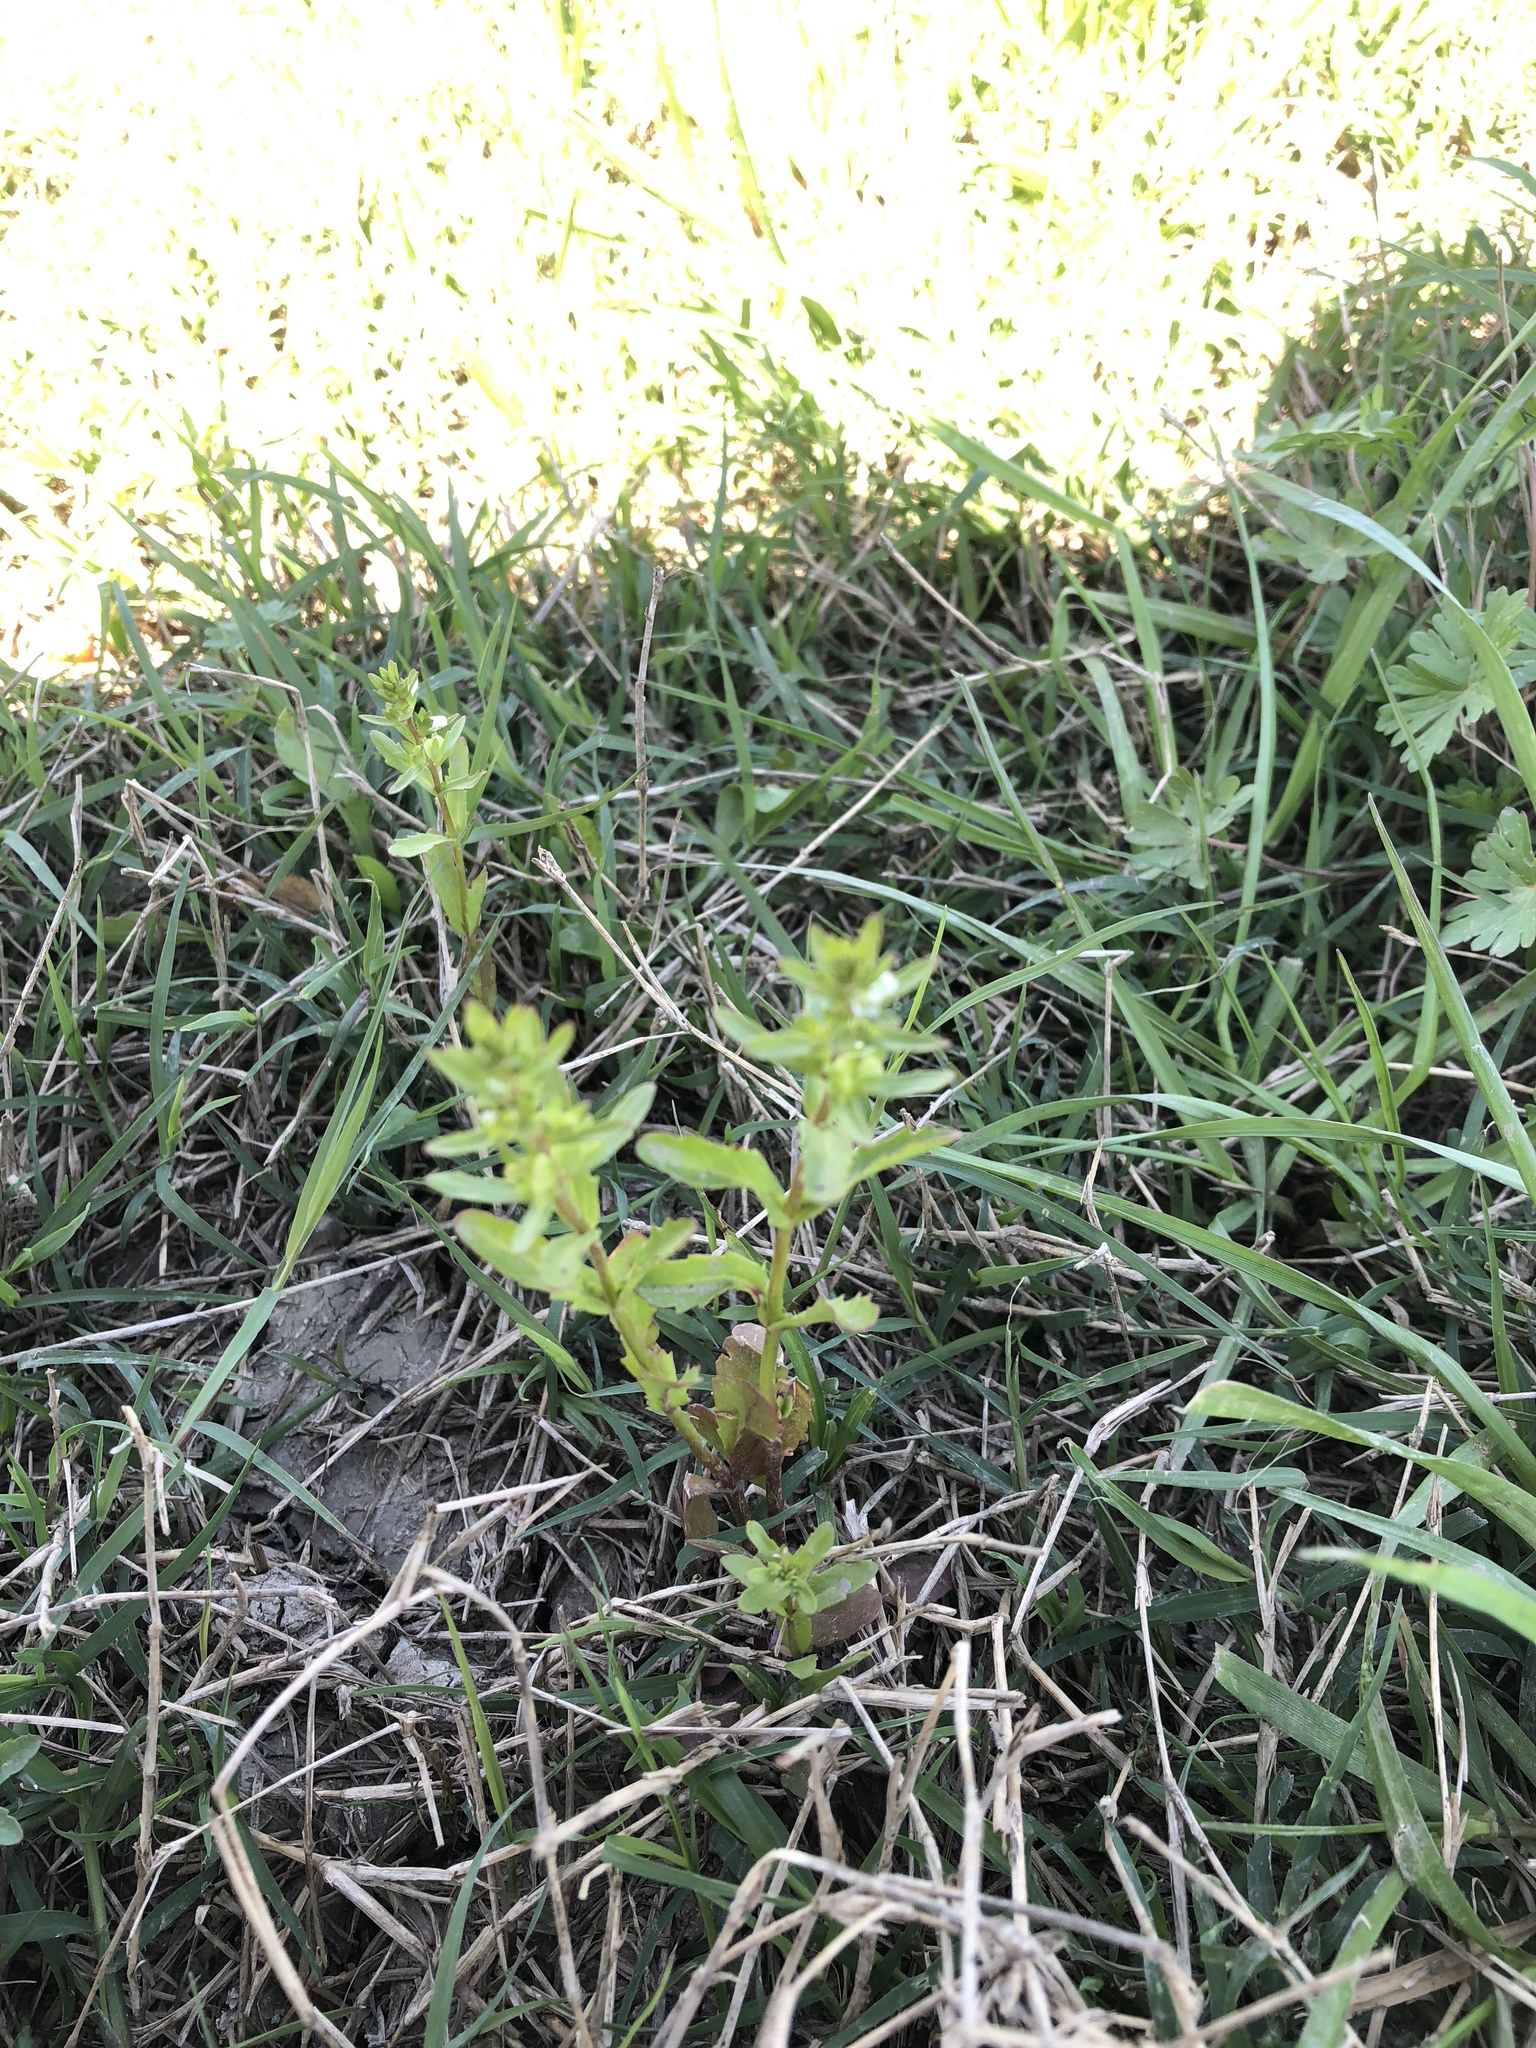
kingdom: Plantae
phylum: Tracheophyta
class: Magnoliopsida
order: Lamiales
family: Plantaginaceae
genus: Veronica
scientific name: Veronica peregrina
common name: Neckweed
